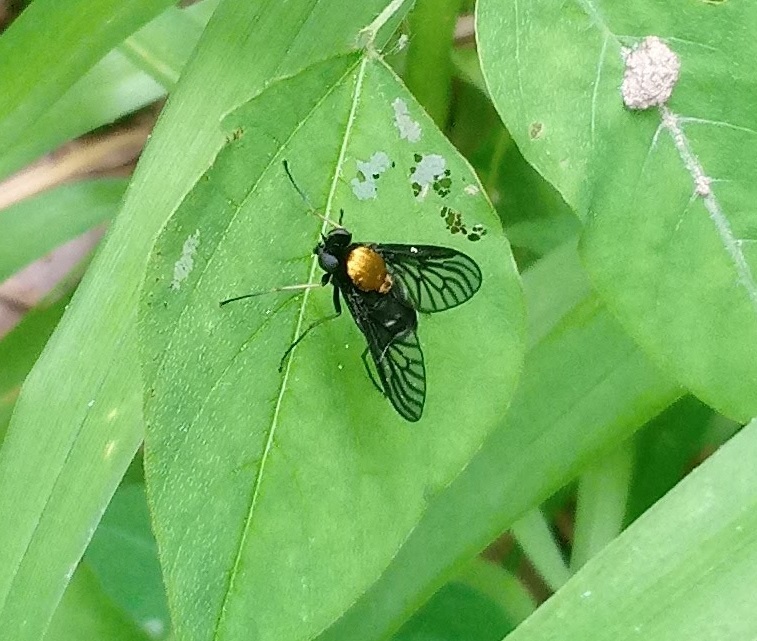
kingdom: Animalia
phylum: Arthropoda
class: Insecta
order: Diptera
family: Rhagionidae
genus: Chrysopilus
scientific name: Chrysopilus thoracicus
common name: Golden-backed snipe fly
